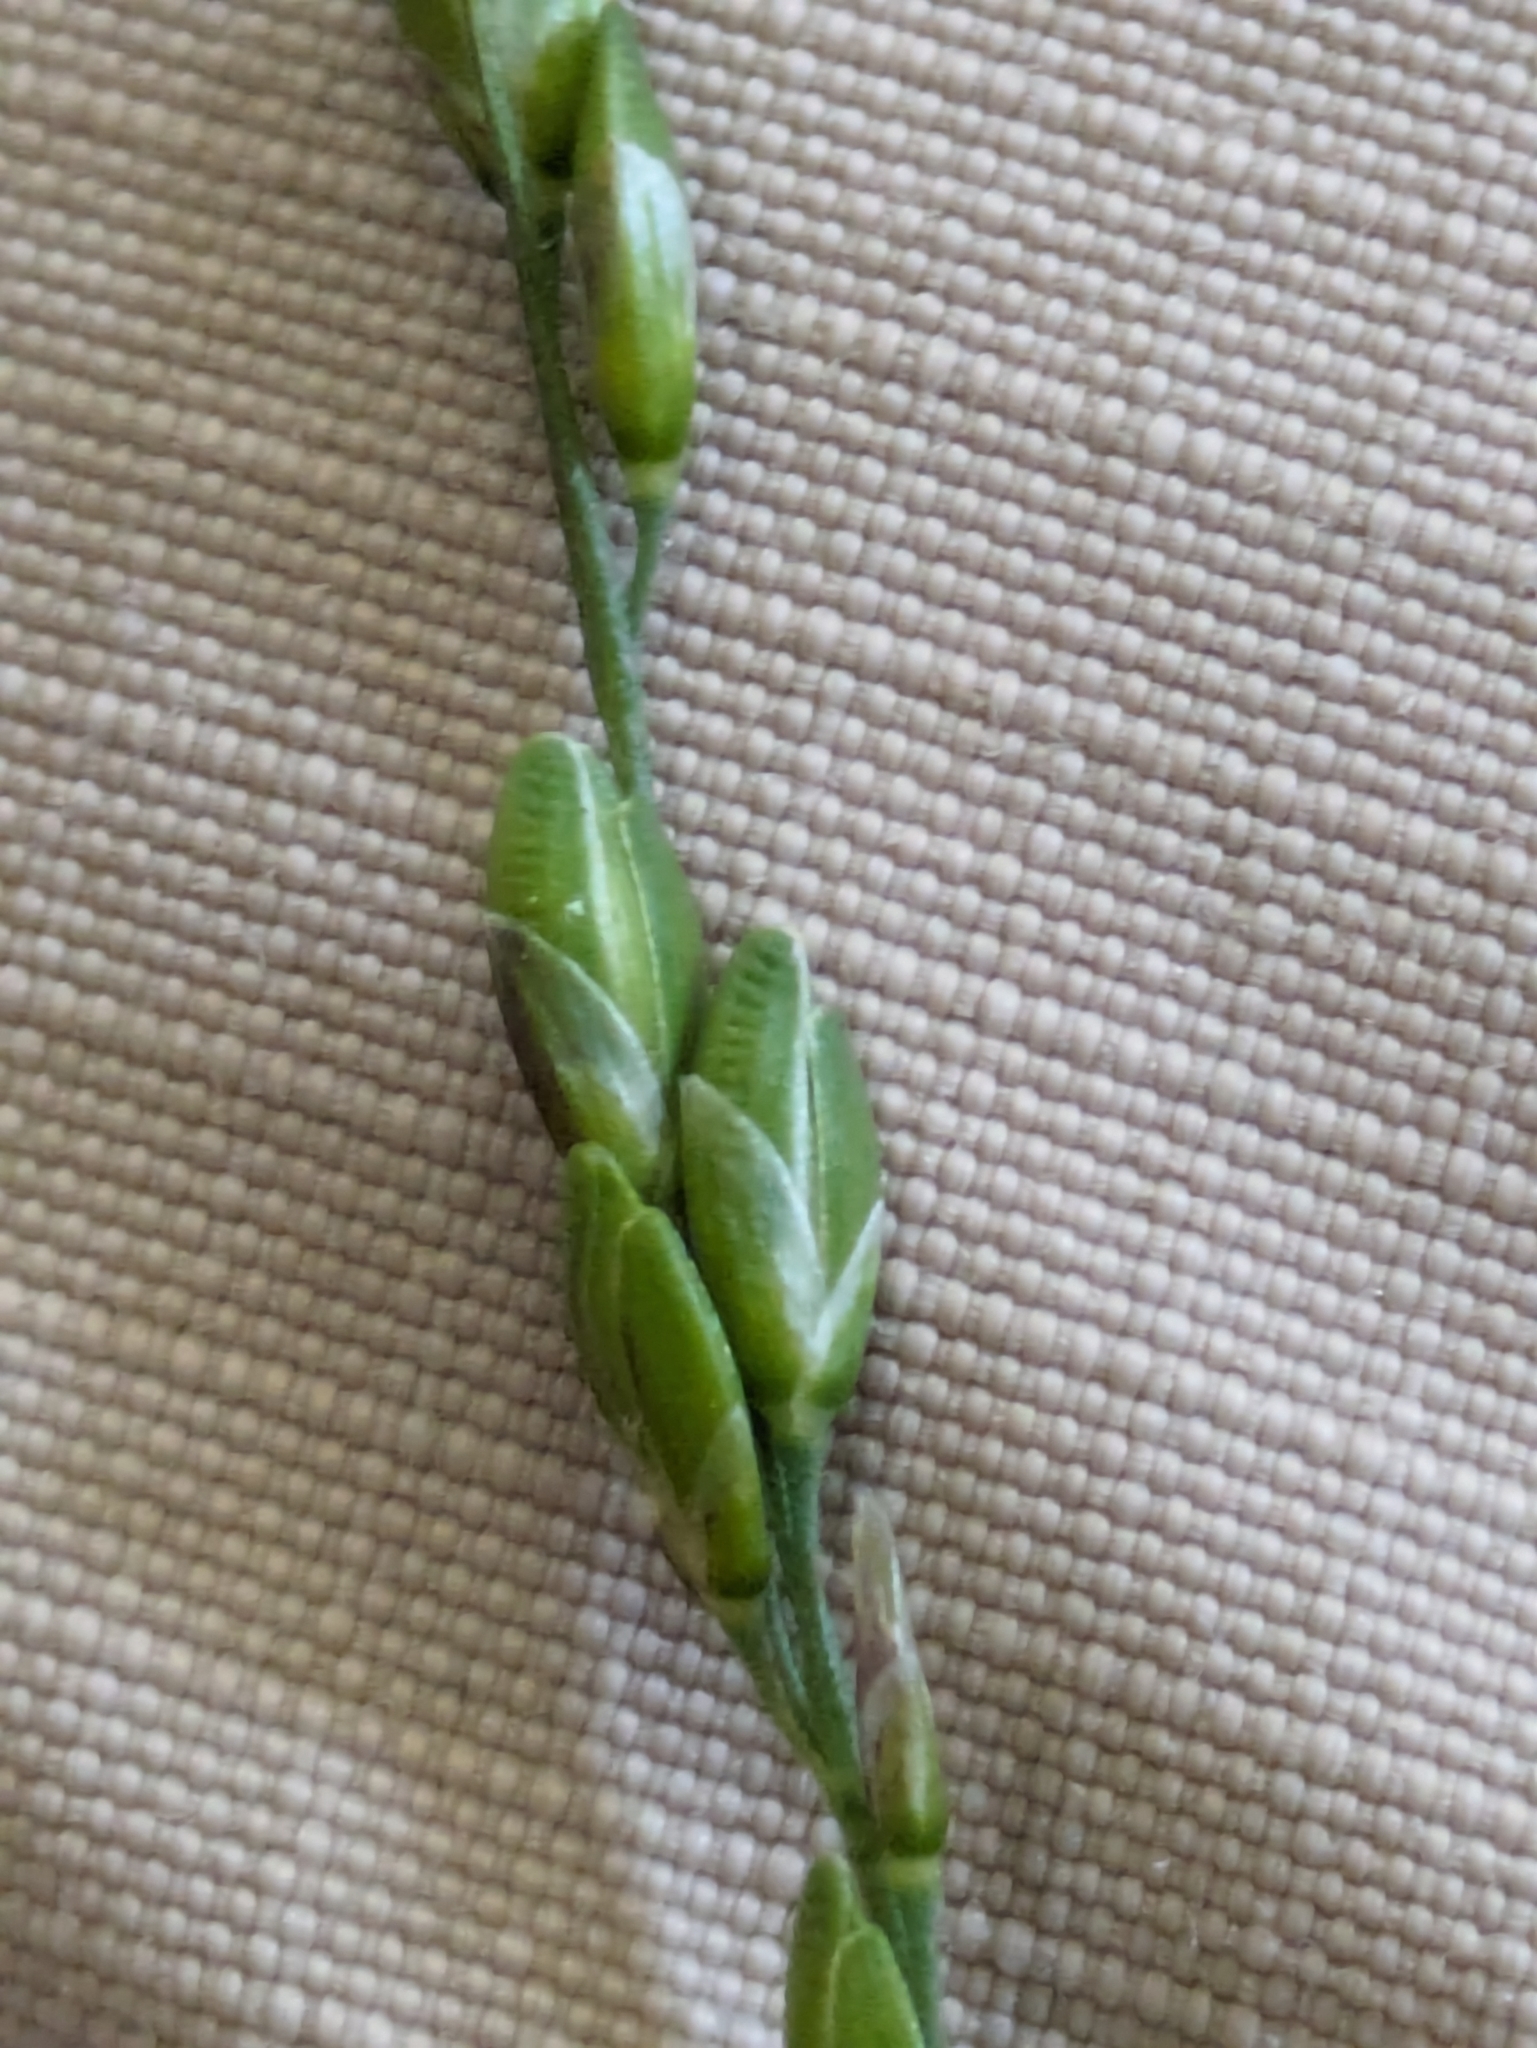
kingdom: Plantae
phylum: Tracheophyta
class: Liliopsida
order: Poales
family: Poaceae
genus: Ehrharta
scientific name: Ehrharta erecta
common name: Panic veldtgrass
